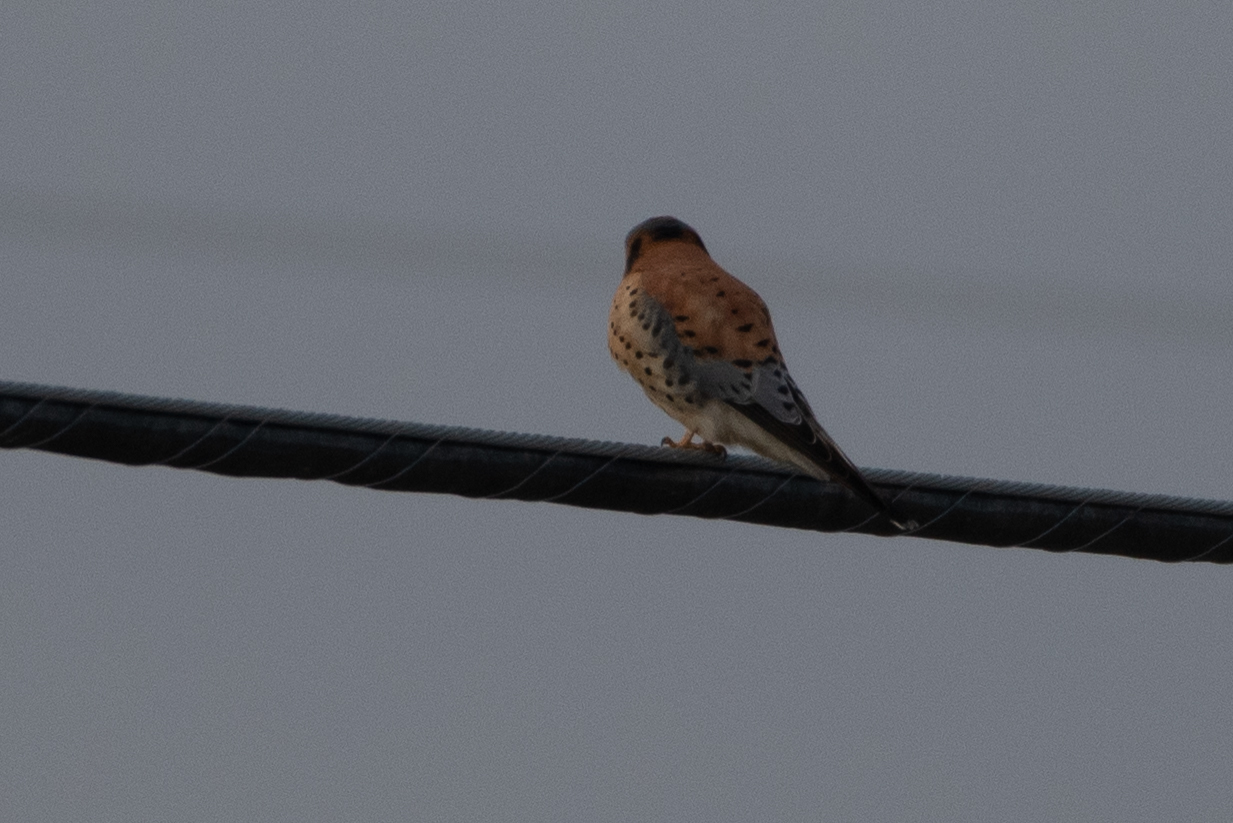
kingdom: Animalia
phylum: Chordata
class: Aves
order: Falconiformes
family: Falconidae
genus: Falco
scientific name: Falco sparverius
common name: American kestrel
